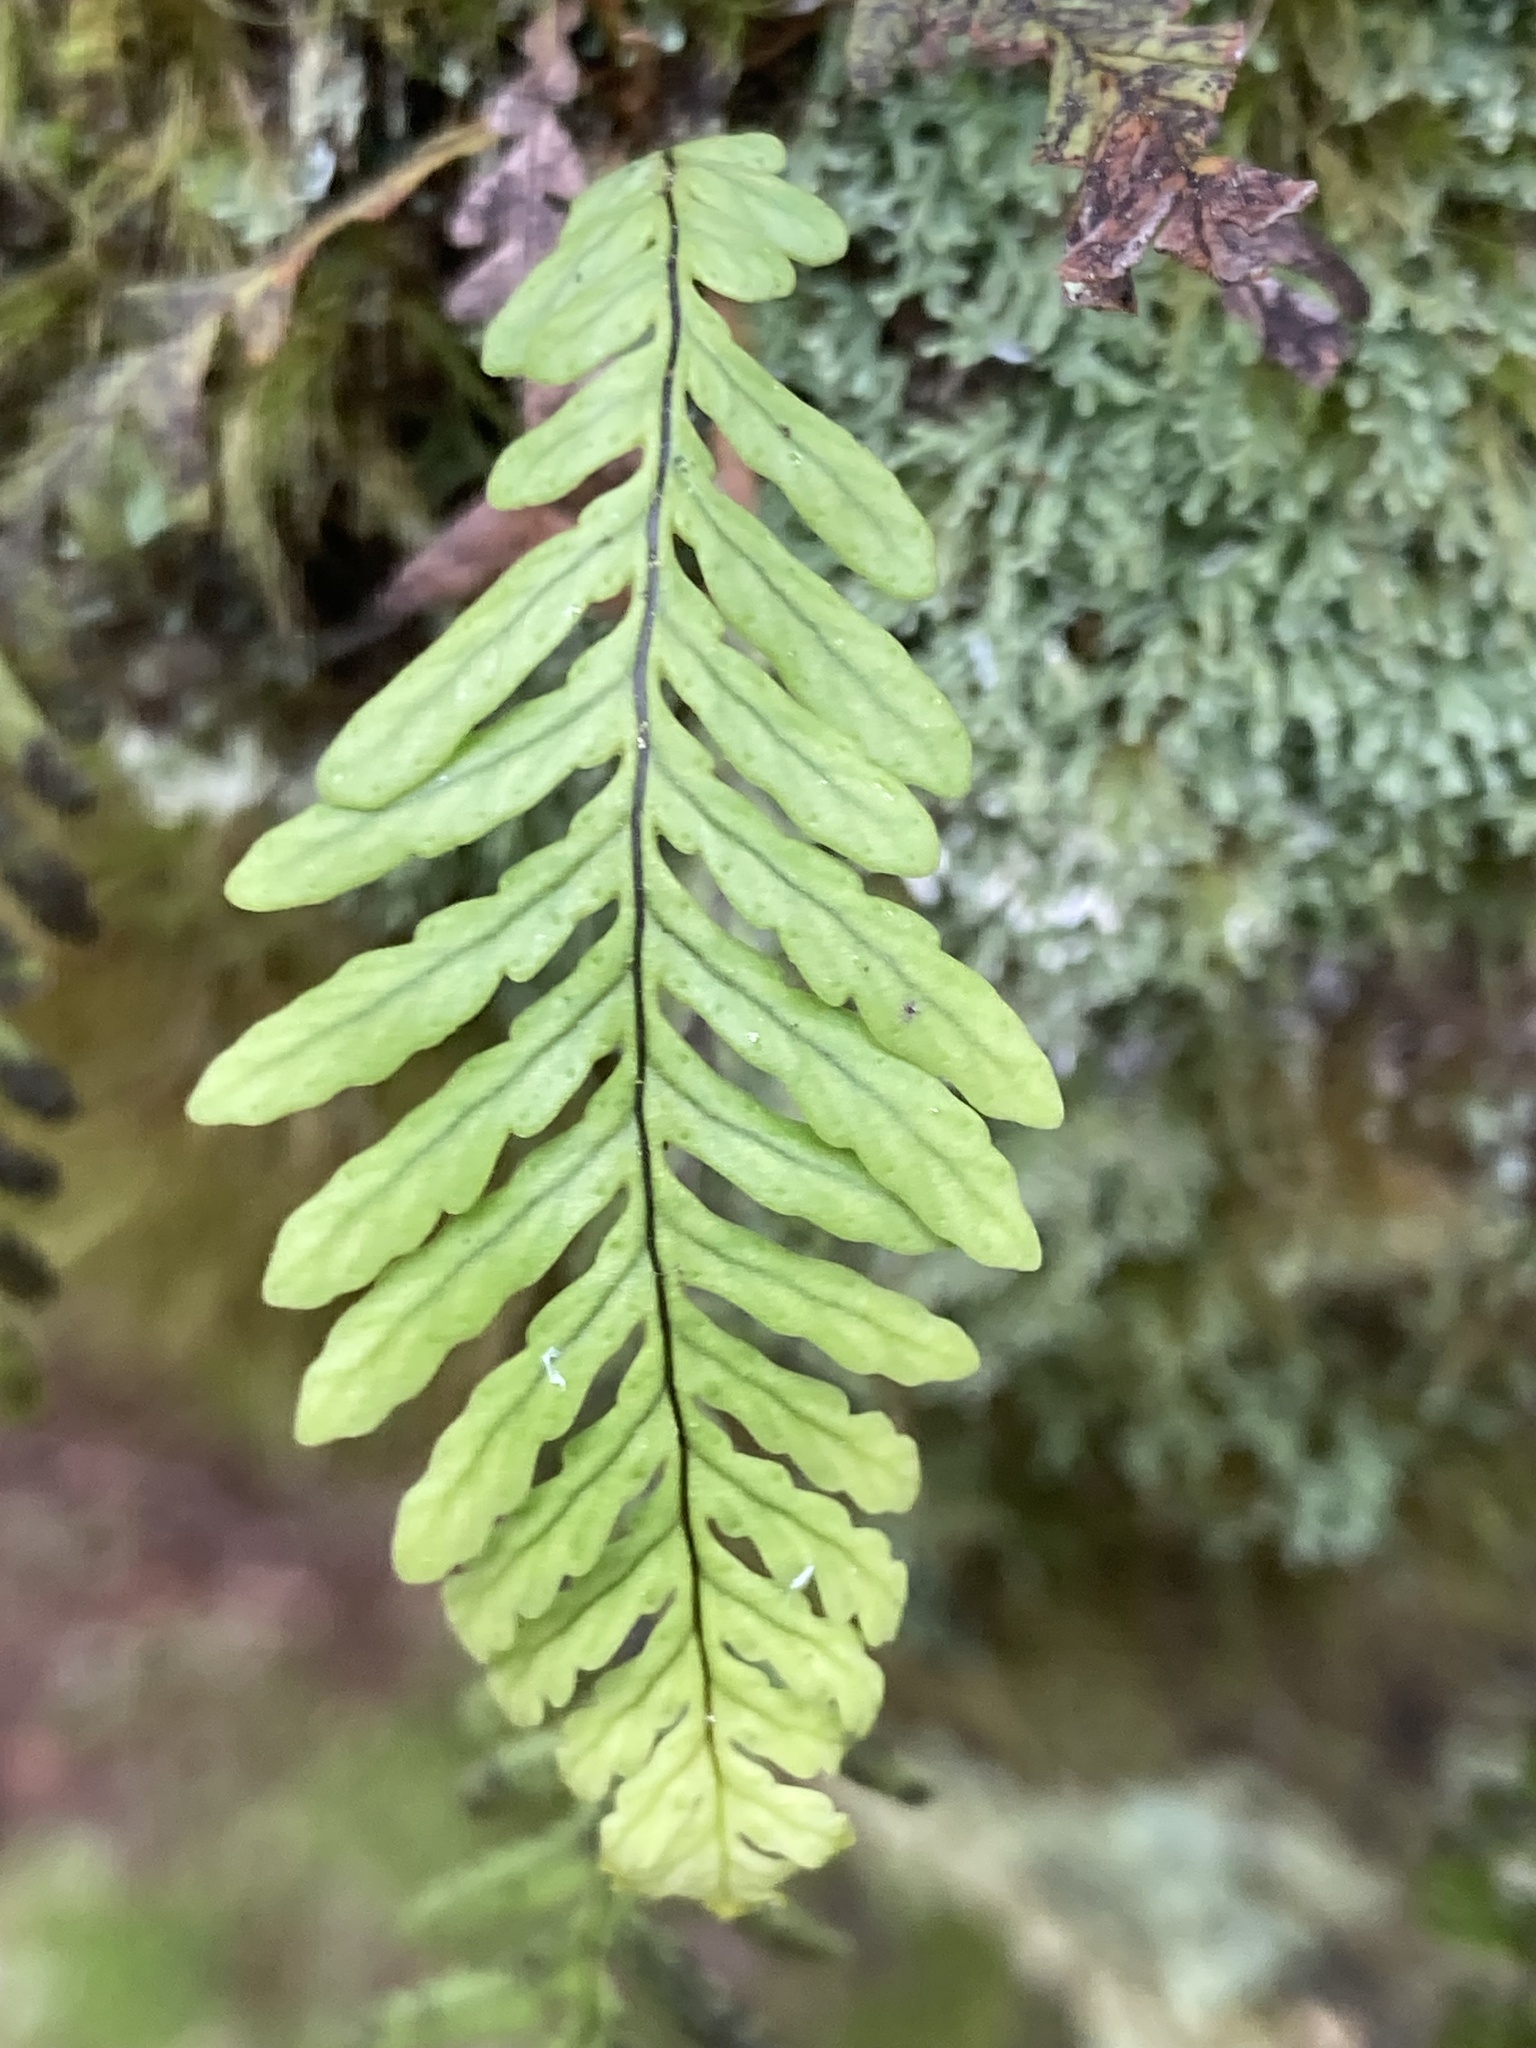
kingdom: Plantae
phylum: Tracheophyta
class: Polypodiopsida
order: Polypodiales
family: Polypodiaceae
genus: Notogrammitis
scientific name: Notogrammitis heterophylla
